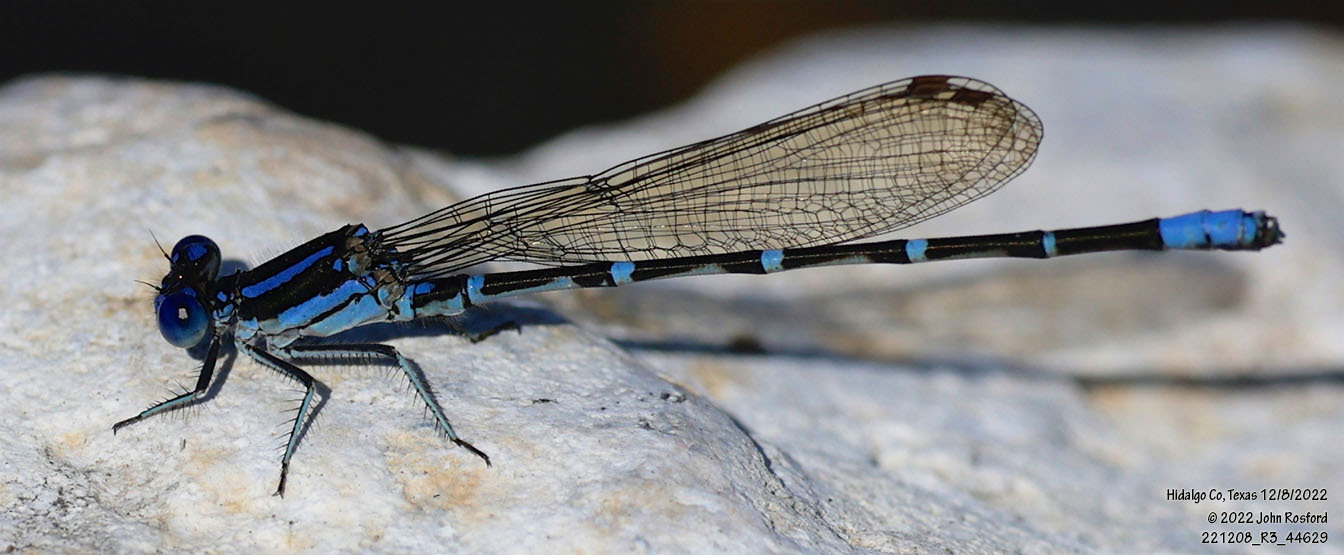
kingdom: Animalia
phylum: Arthropoda
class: Insecta
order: Odonata
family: Coenagrionidae
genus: Argia
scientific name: Argia sedula
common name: Blue-ringed dancer
